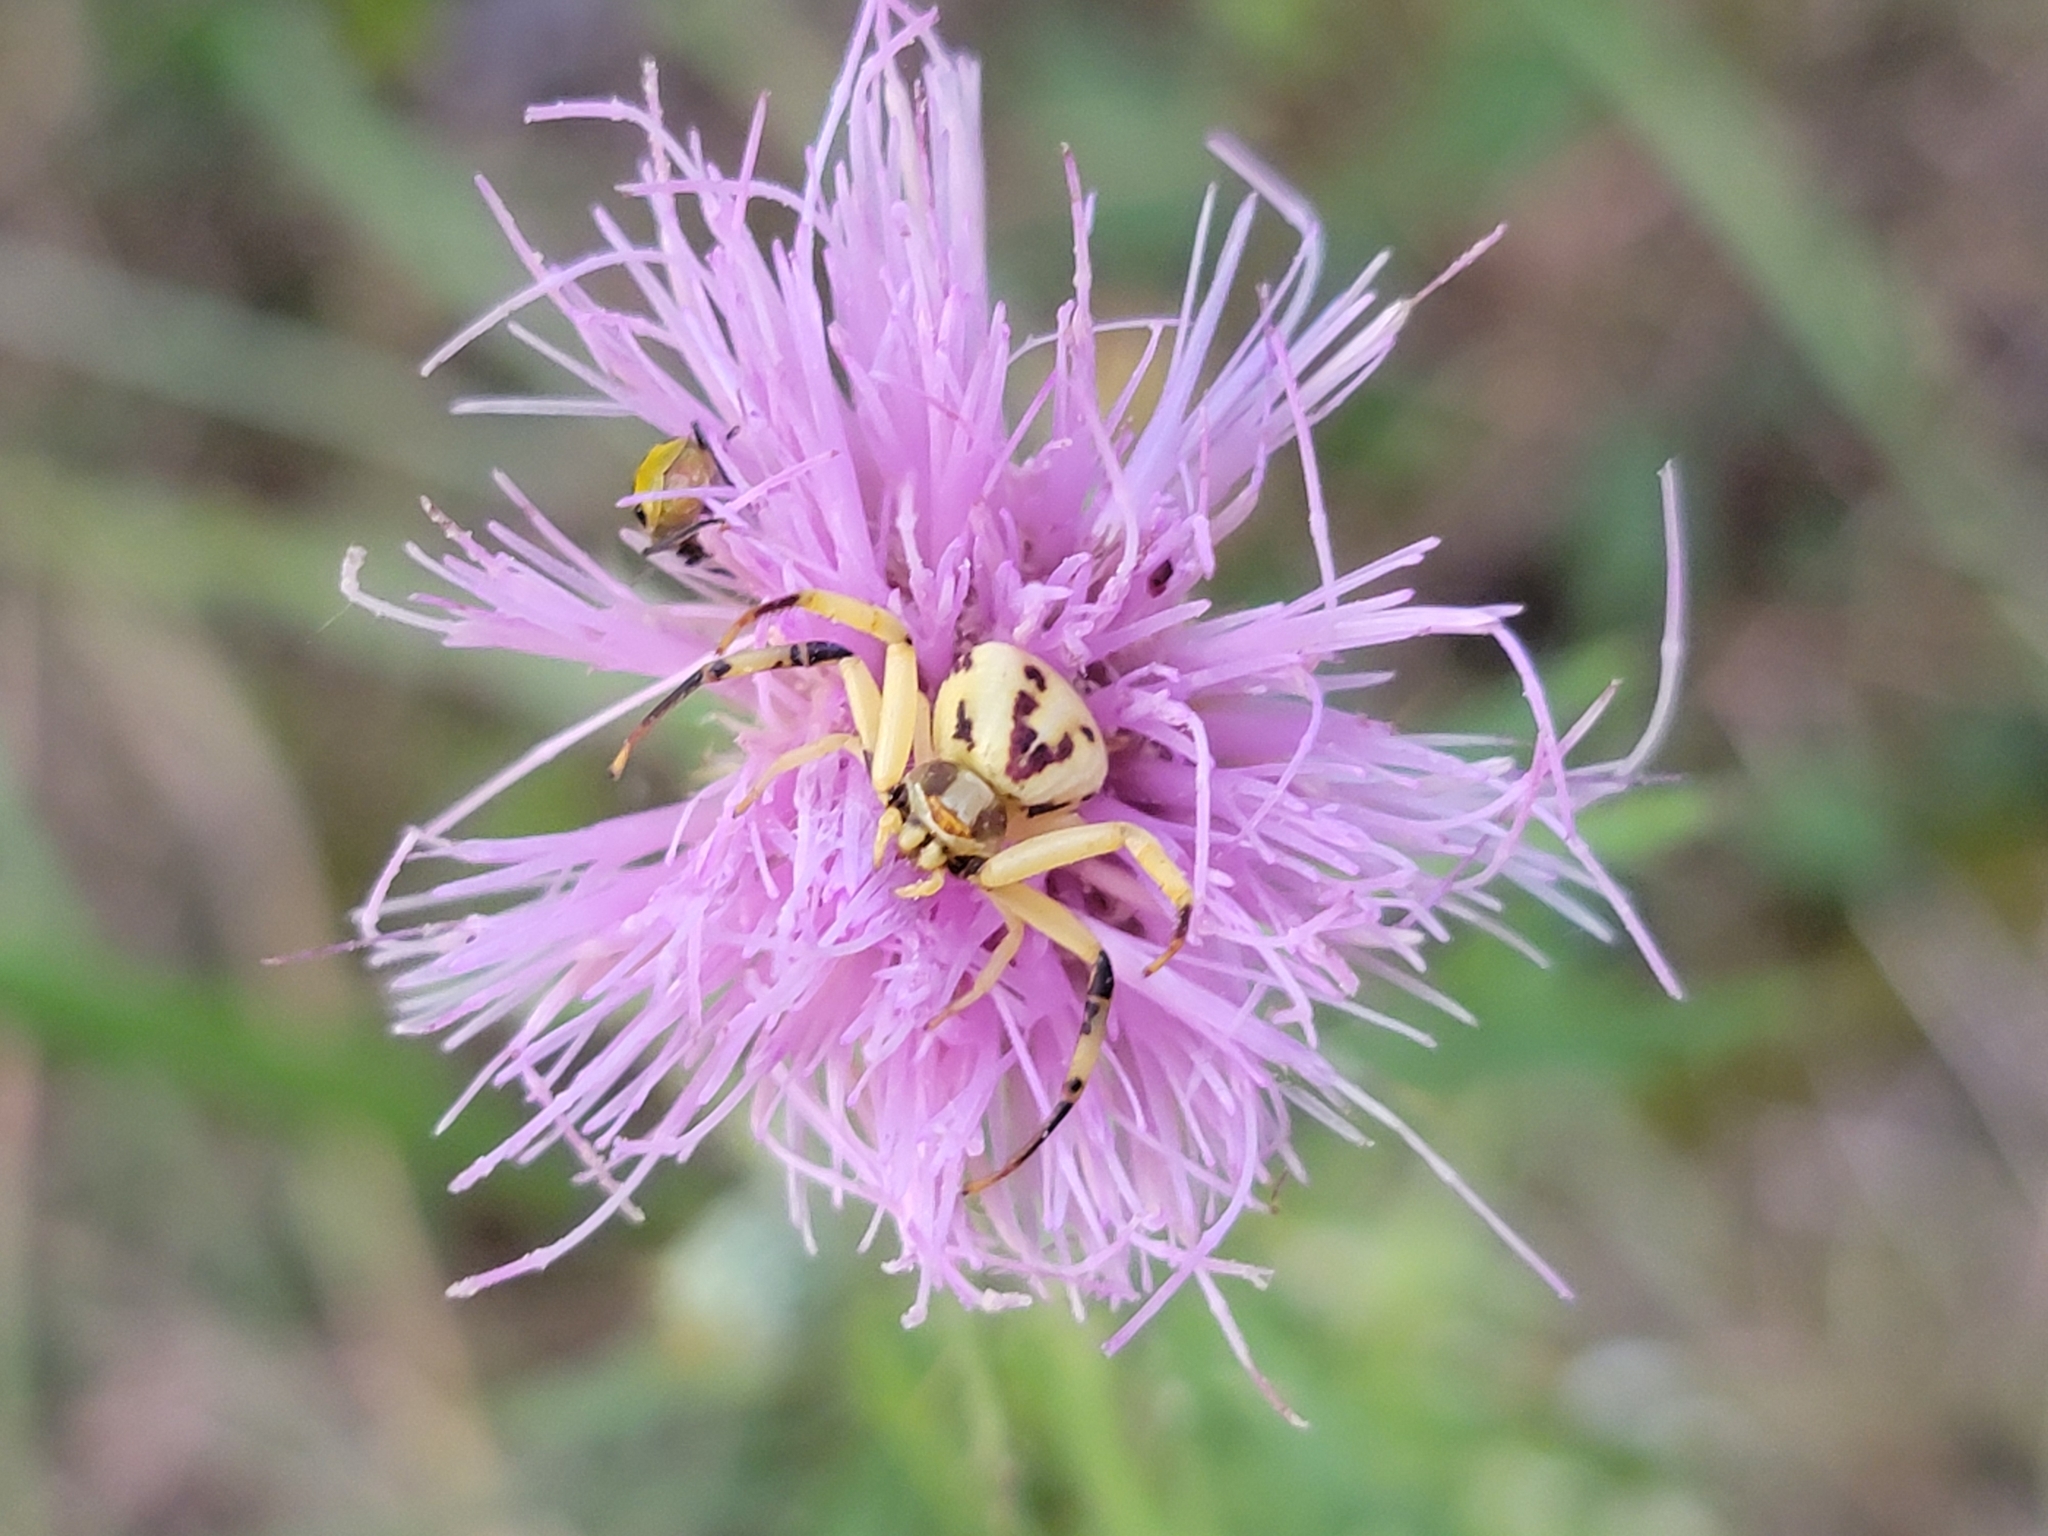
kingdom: Animalia
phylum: Arthropoda
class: Arachnida
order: Araneae
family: Thomisidae
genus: Misumenoides
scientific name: Misumenoides formosipes
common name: White-banded crab spider
